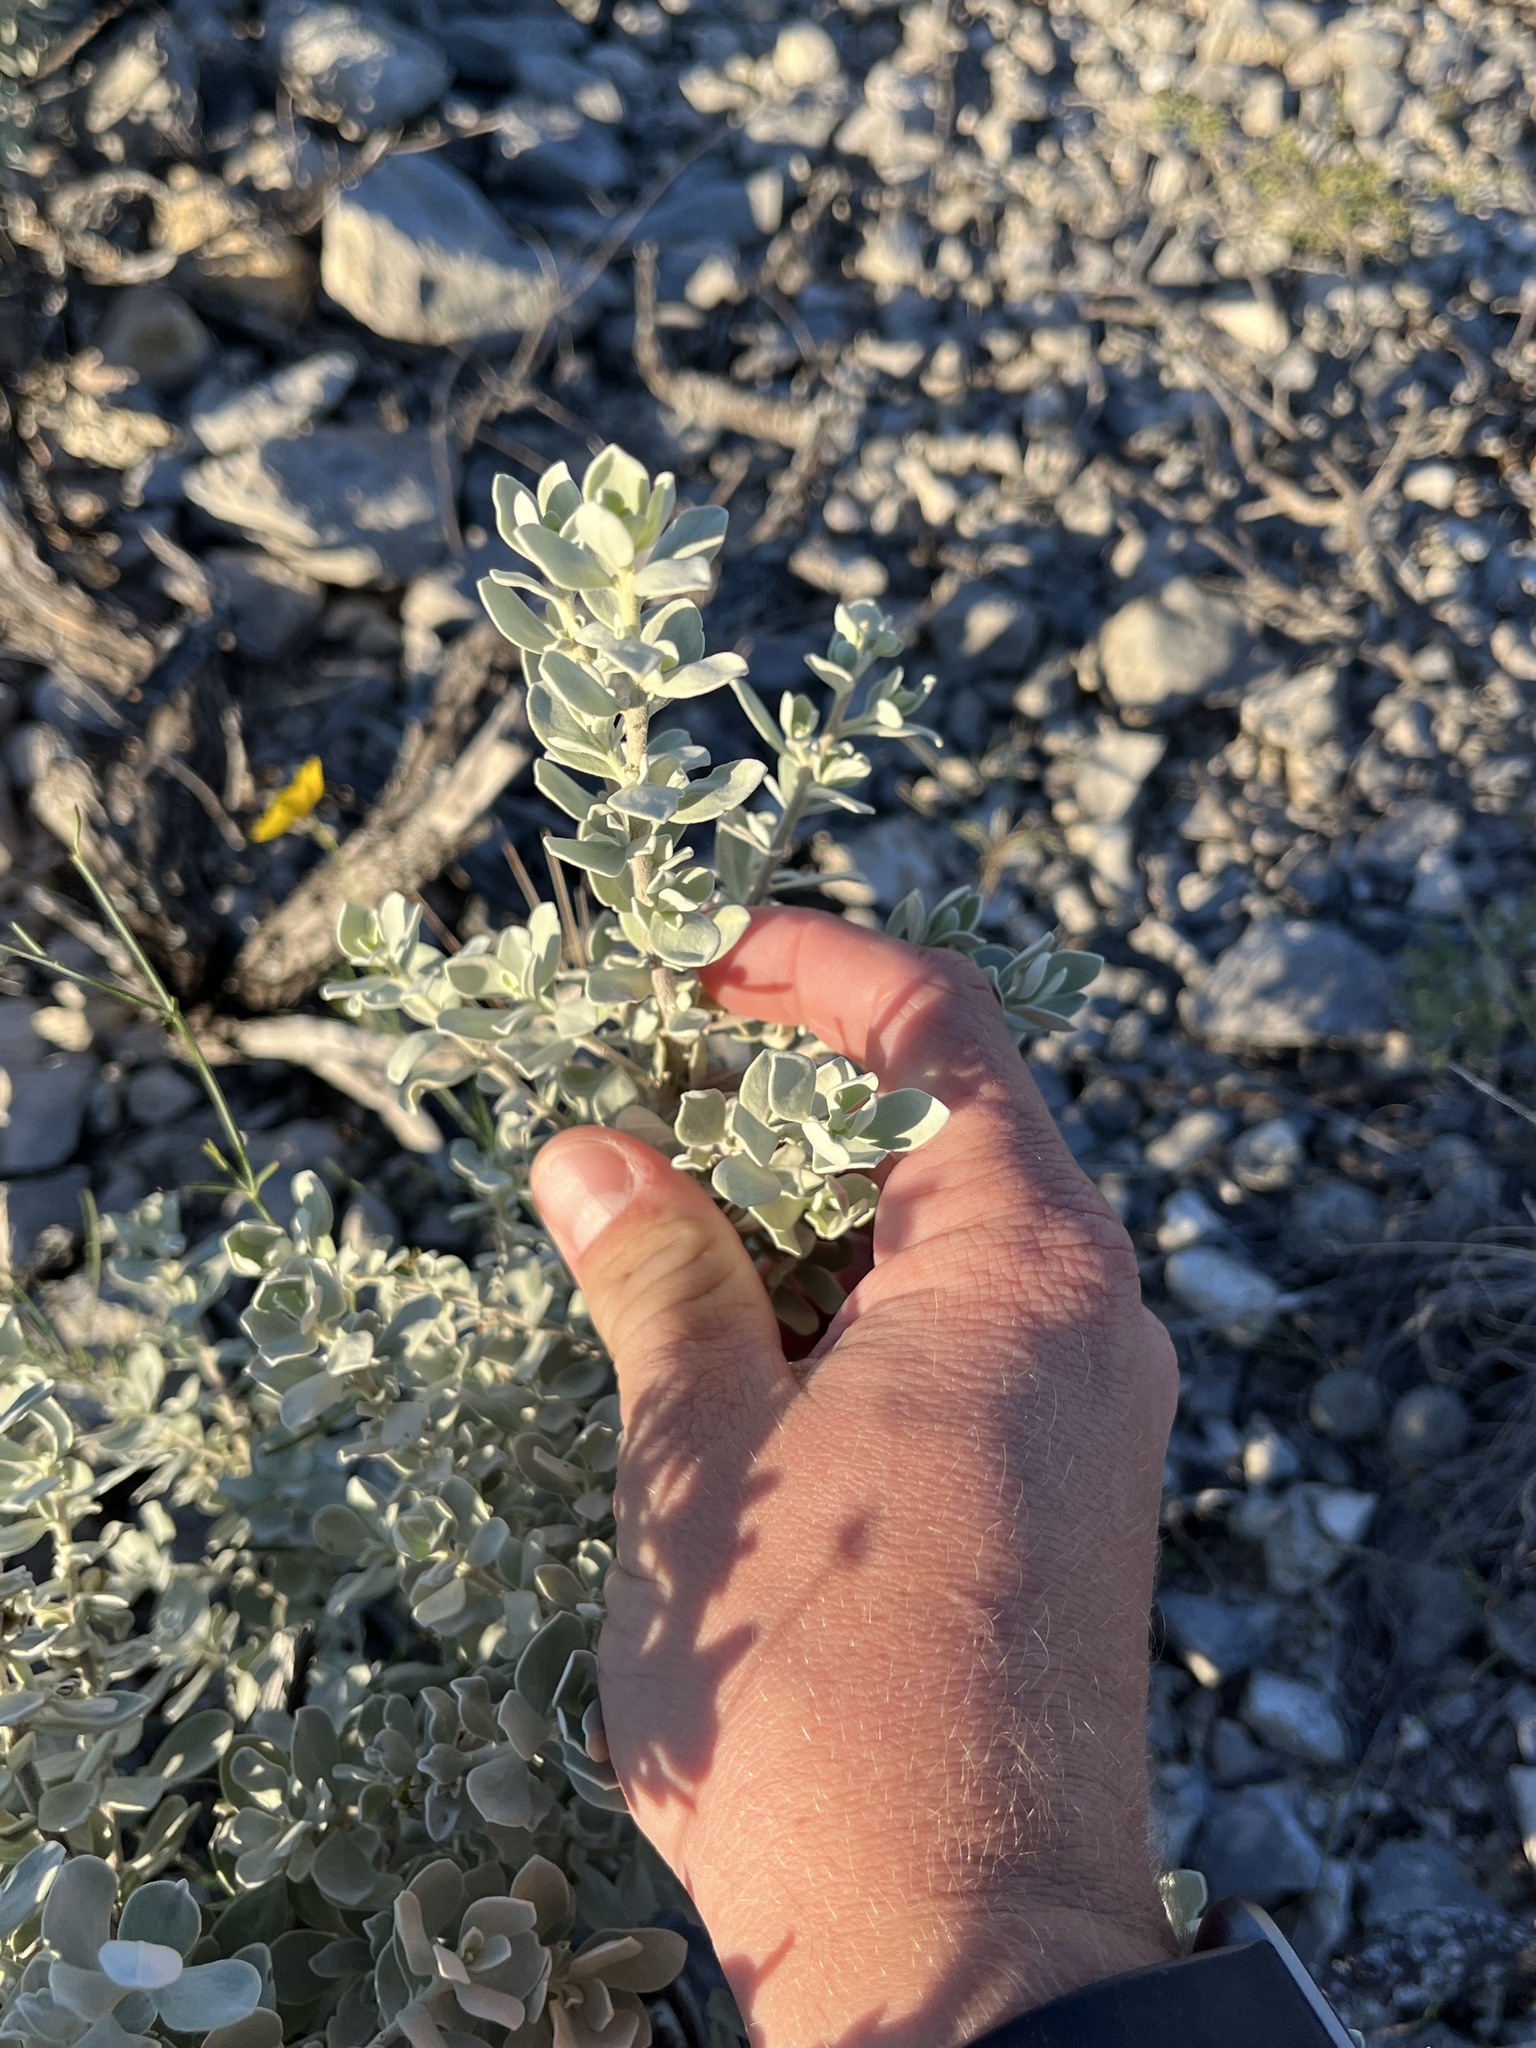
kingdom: Plantae
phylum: Tracheophyta
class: Magnoliopsida
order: Lamiales
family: Scrophulariaceae
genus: Leucophyllum
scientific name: Leucophyllum frutescens
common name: Texas silverleaf
